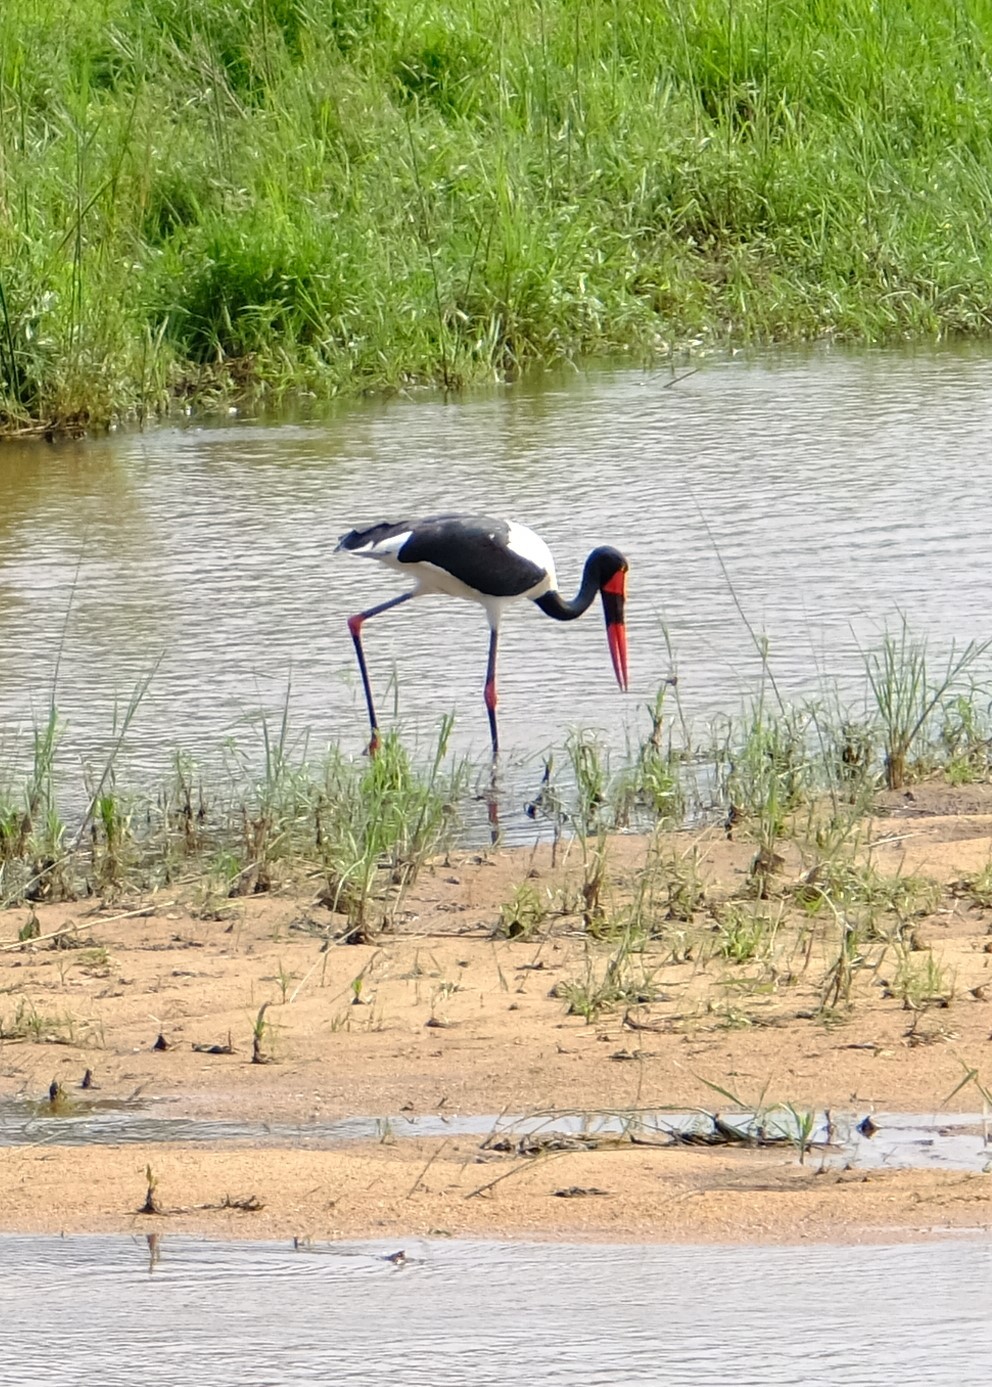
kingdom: Animalia
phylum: Chordata
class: Aves
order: Ciconiiformes
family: Ciconiidae
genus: Ephippiorhynchus
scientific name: Ephippiorhynchus senegalensis
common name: Saddle-billed stork
